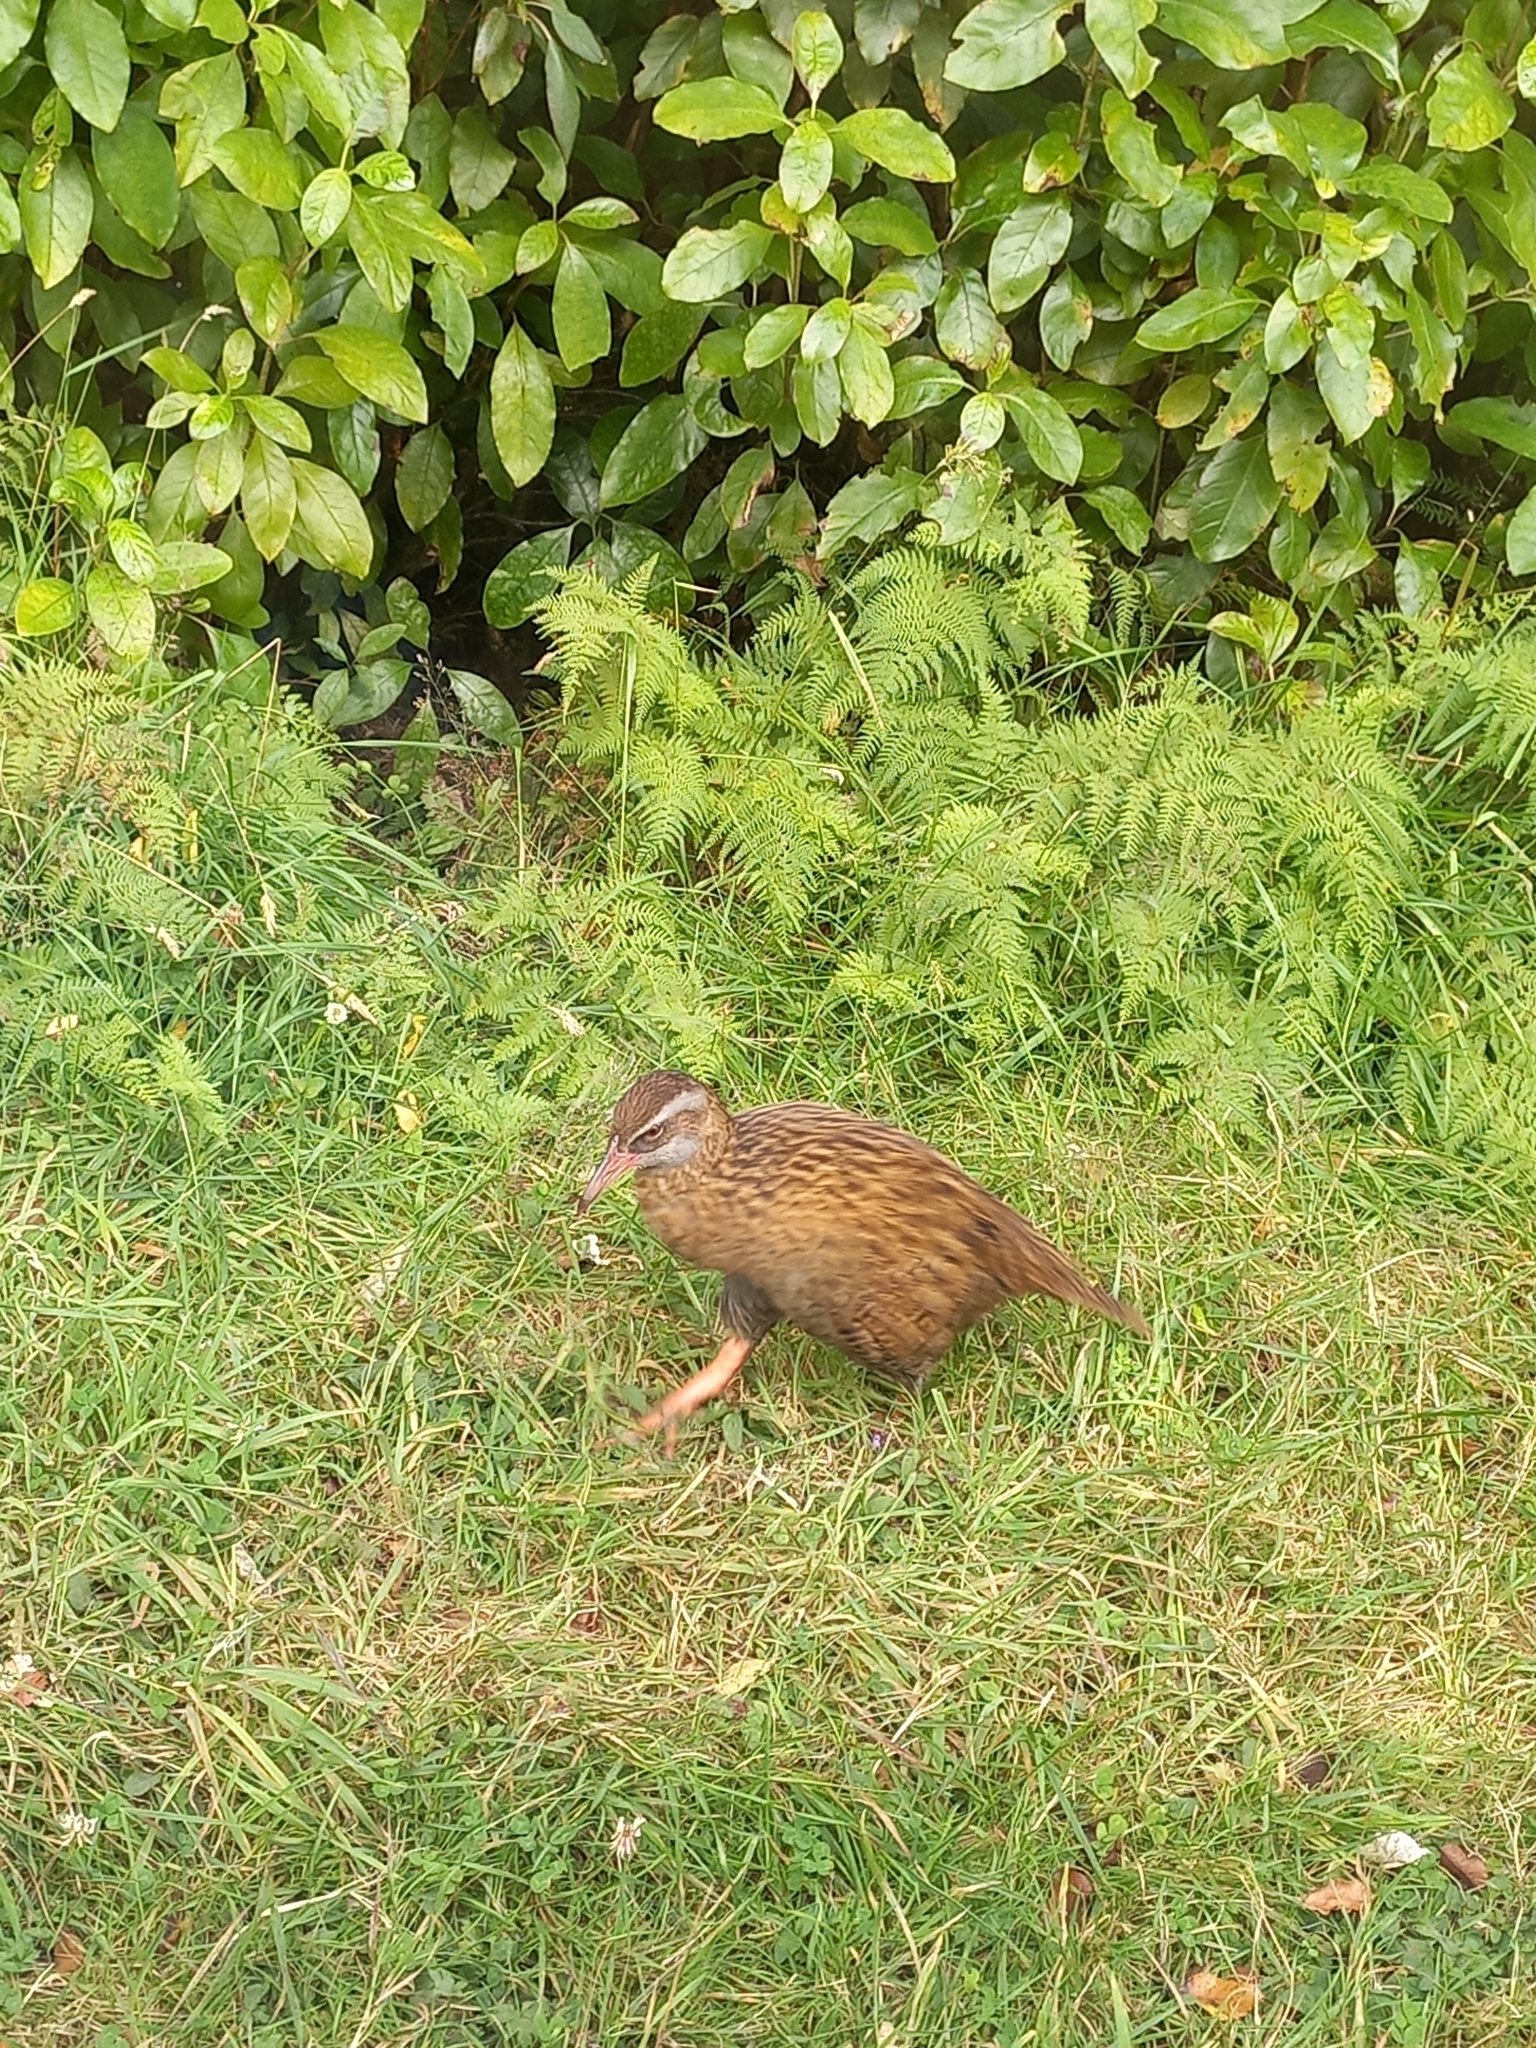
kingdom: Animalia
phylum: Chordata
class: Aves
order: Gruiformes
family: Rallidae
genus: Gallirallus
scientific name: Gallirallus australis
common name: Weka
